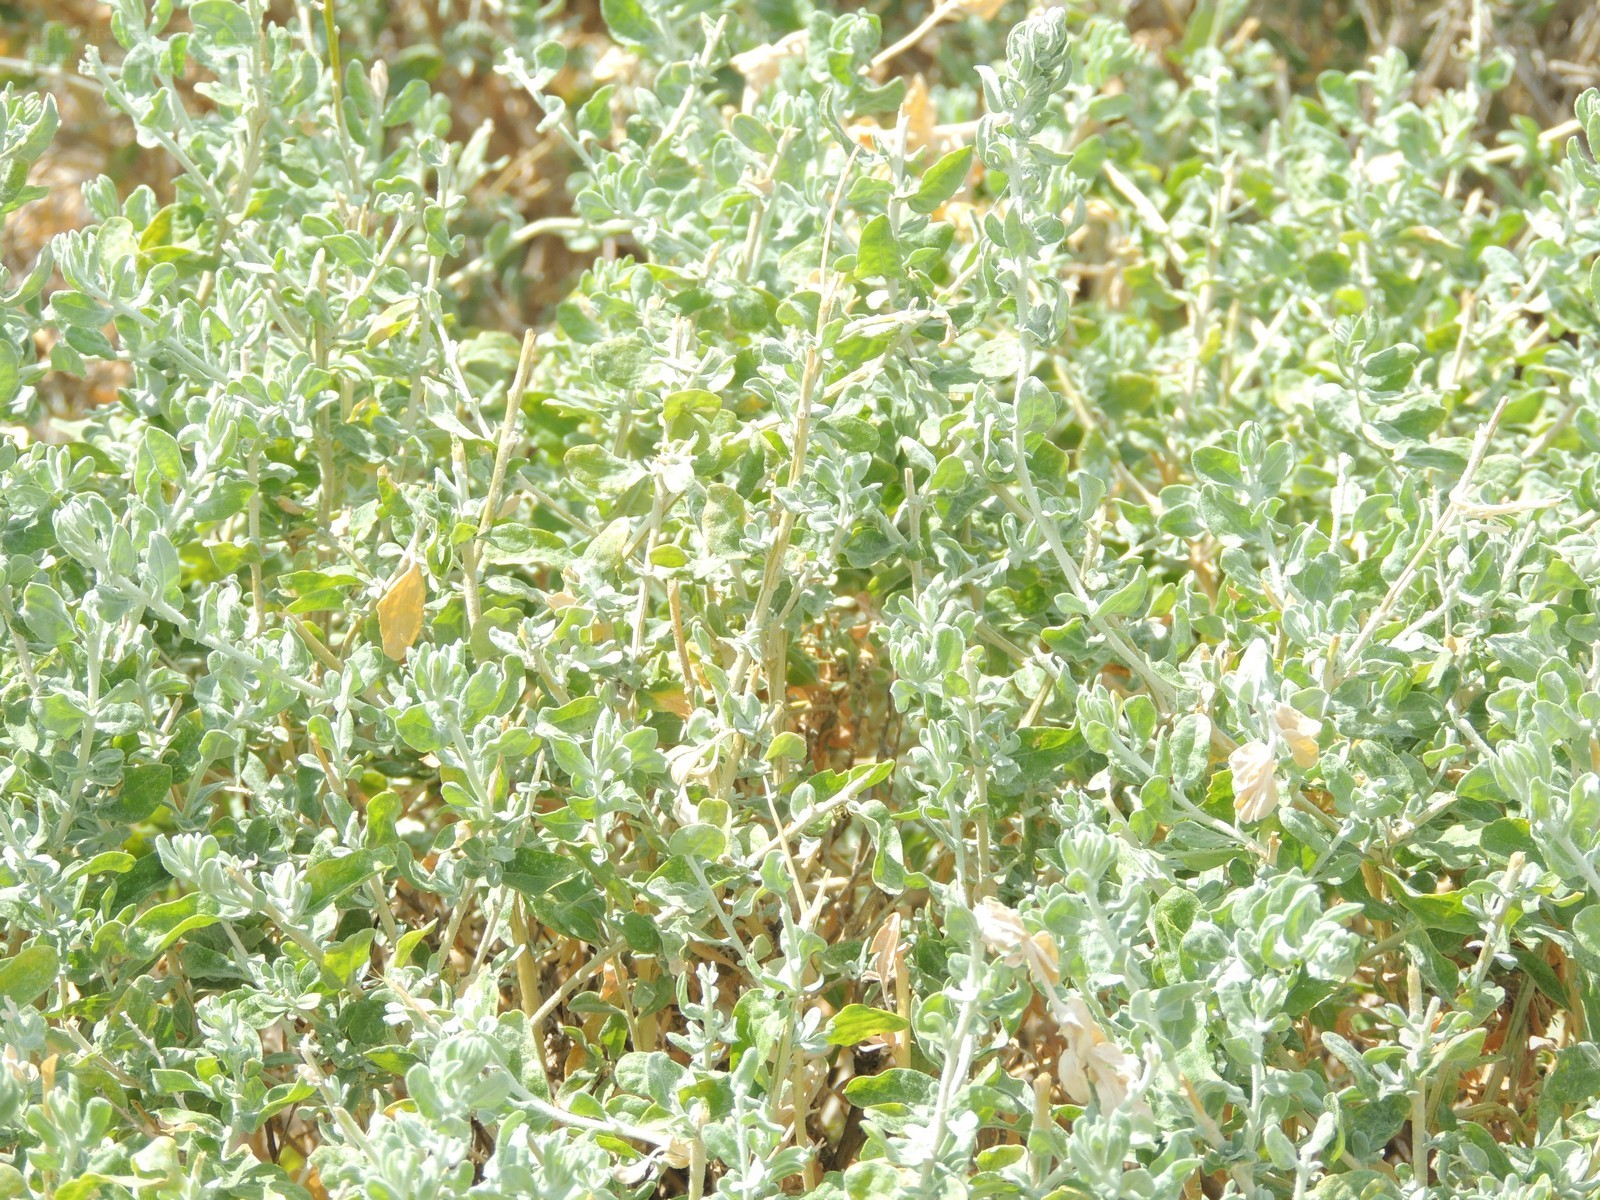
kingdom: Plantae
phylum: Tracheophyta
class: Magnoliopsida
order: Caryophyllales
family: Amaranthaceae
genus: Krascheninnikovia
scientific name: Krascheninnikovia ceratoides
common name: Pamirian winterfat
